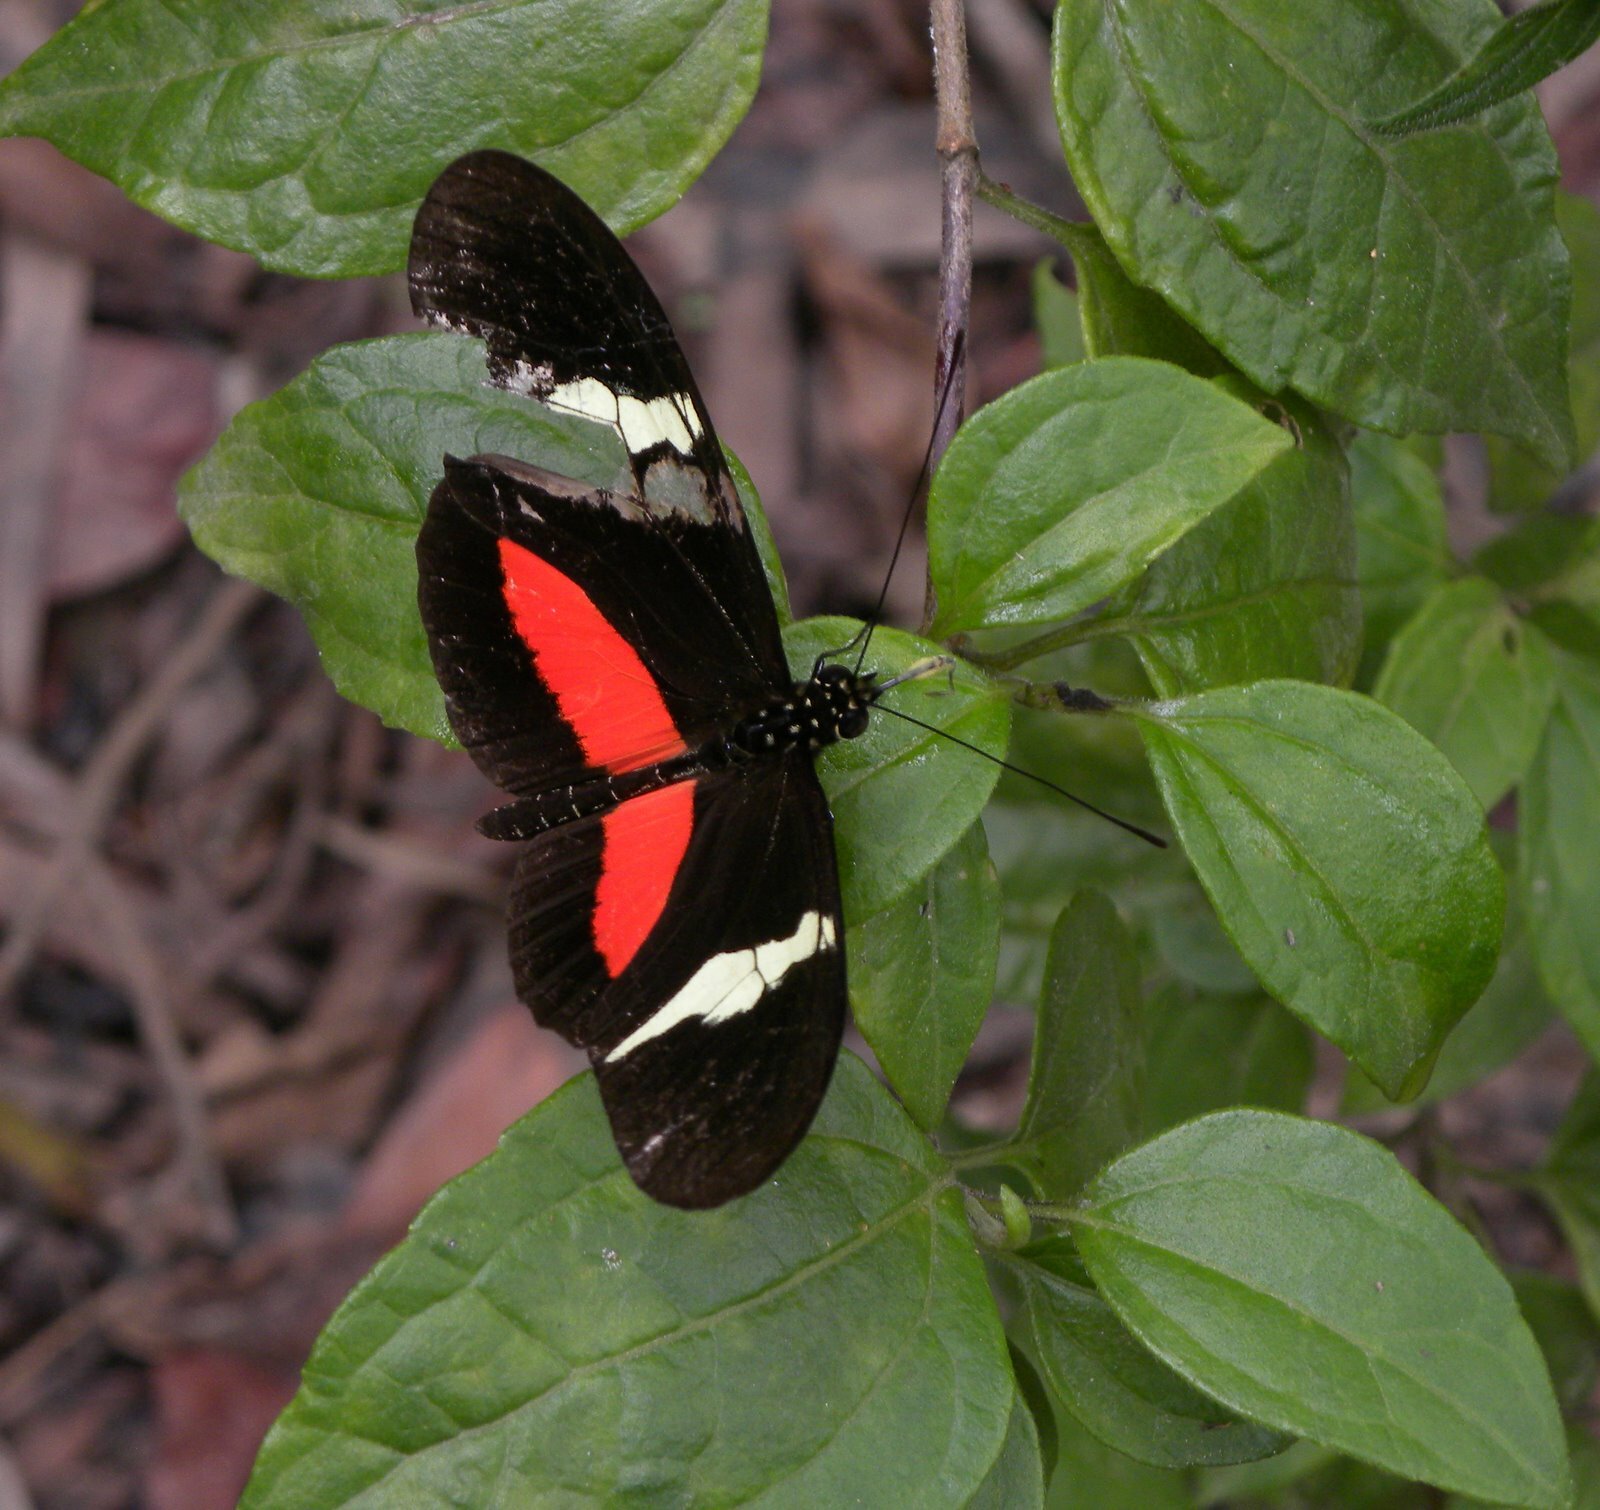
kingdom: Animalia
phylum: Arthropoda
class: Insecta
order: Lepidoptera
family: Nymphalidae
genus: Heliconius
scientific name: Heliconius clysonymus
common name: Clysonymus longwing
